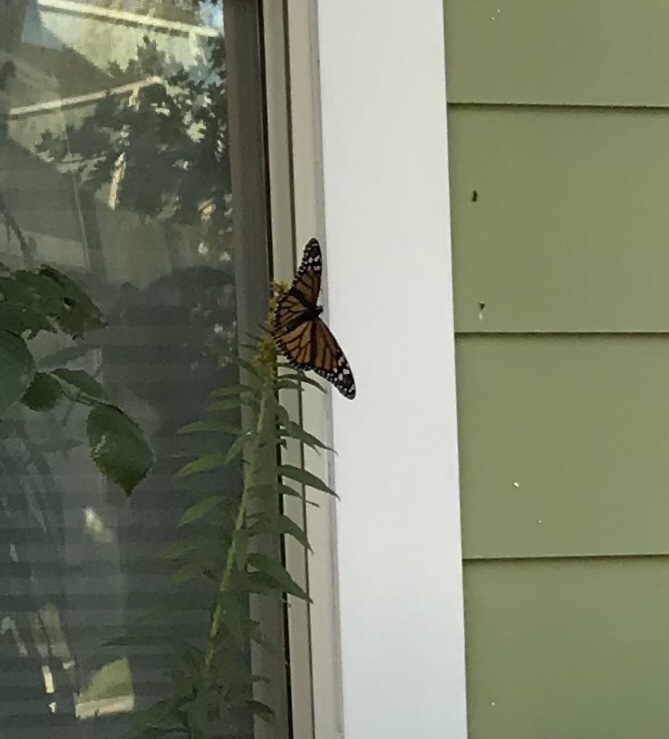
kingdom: Animalia
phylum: Arthropoda
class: Insecta
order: Lepidoptera
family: Nymphalidae
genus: Danaus
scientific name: Danaus plexippus
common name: Monarch
